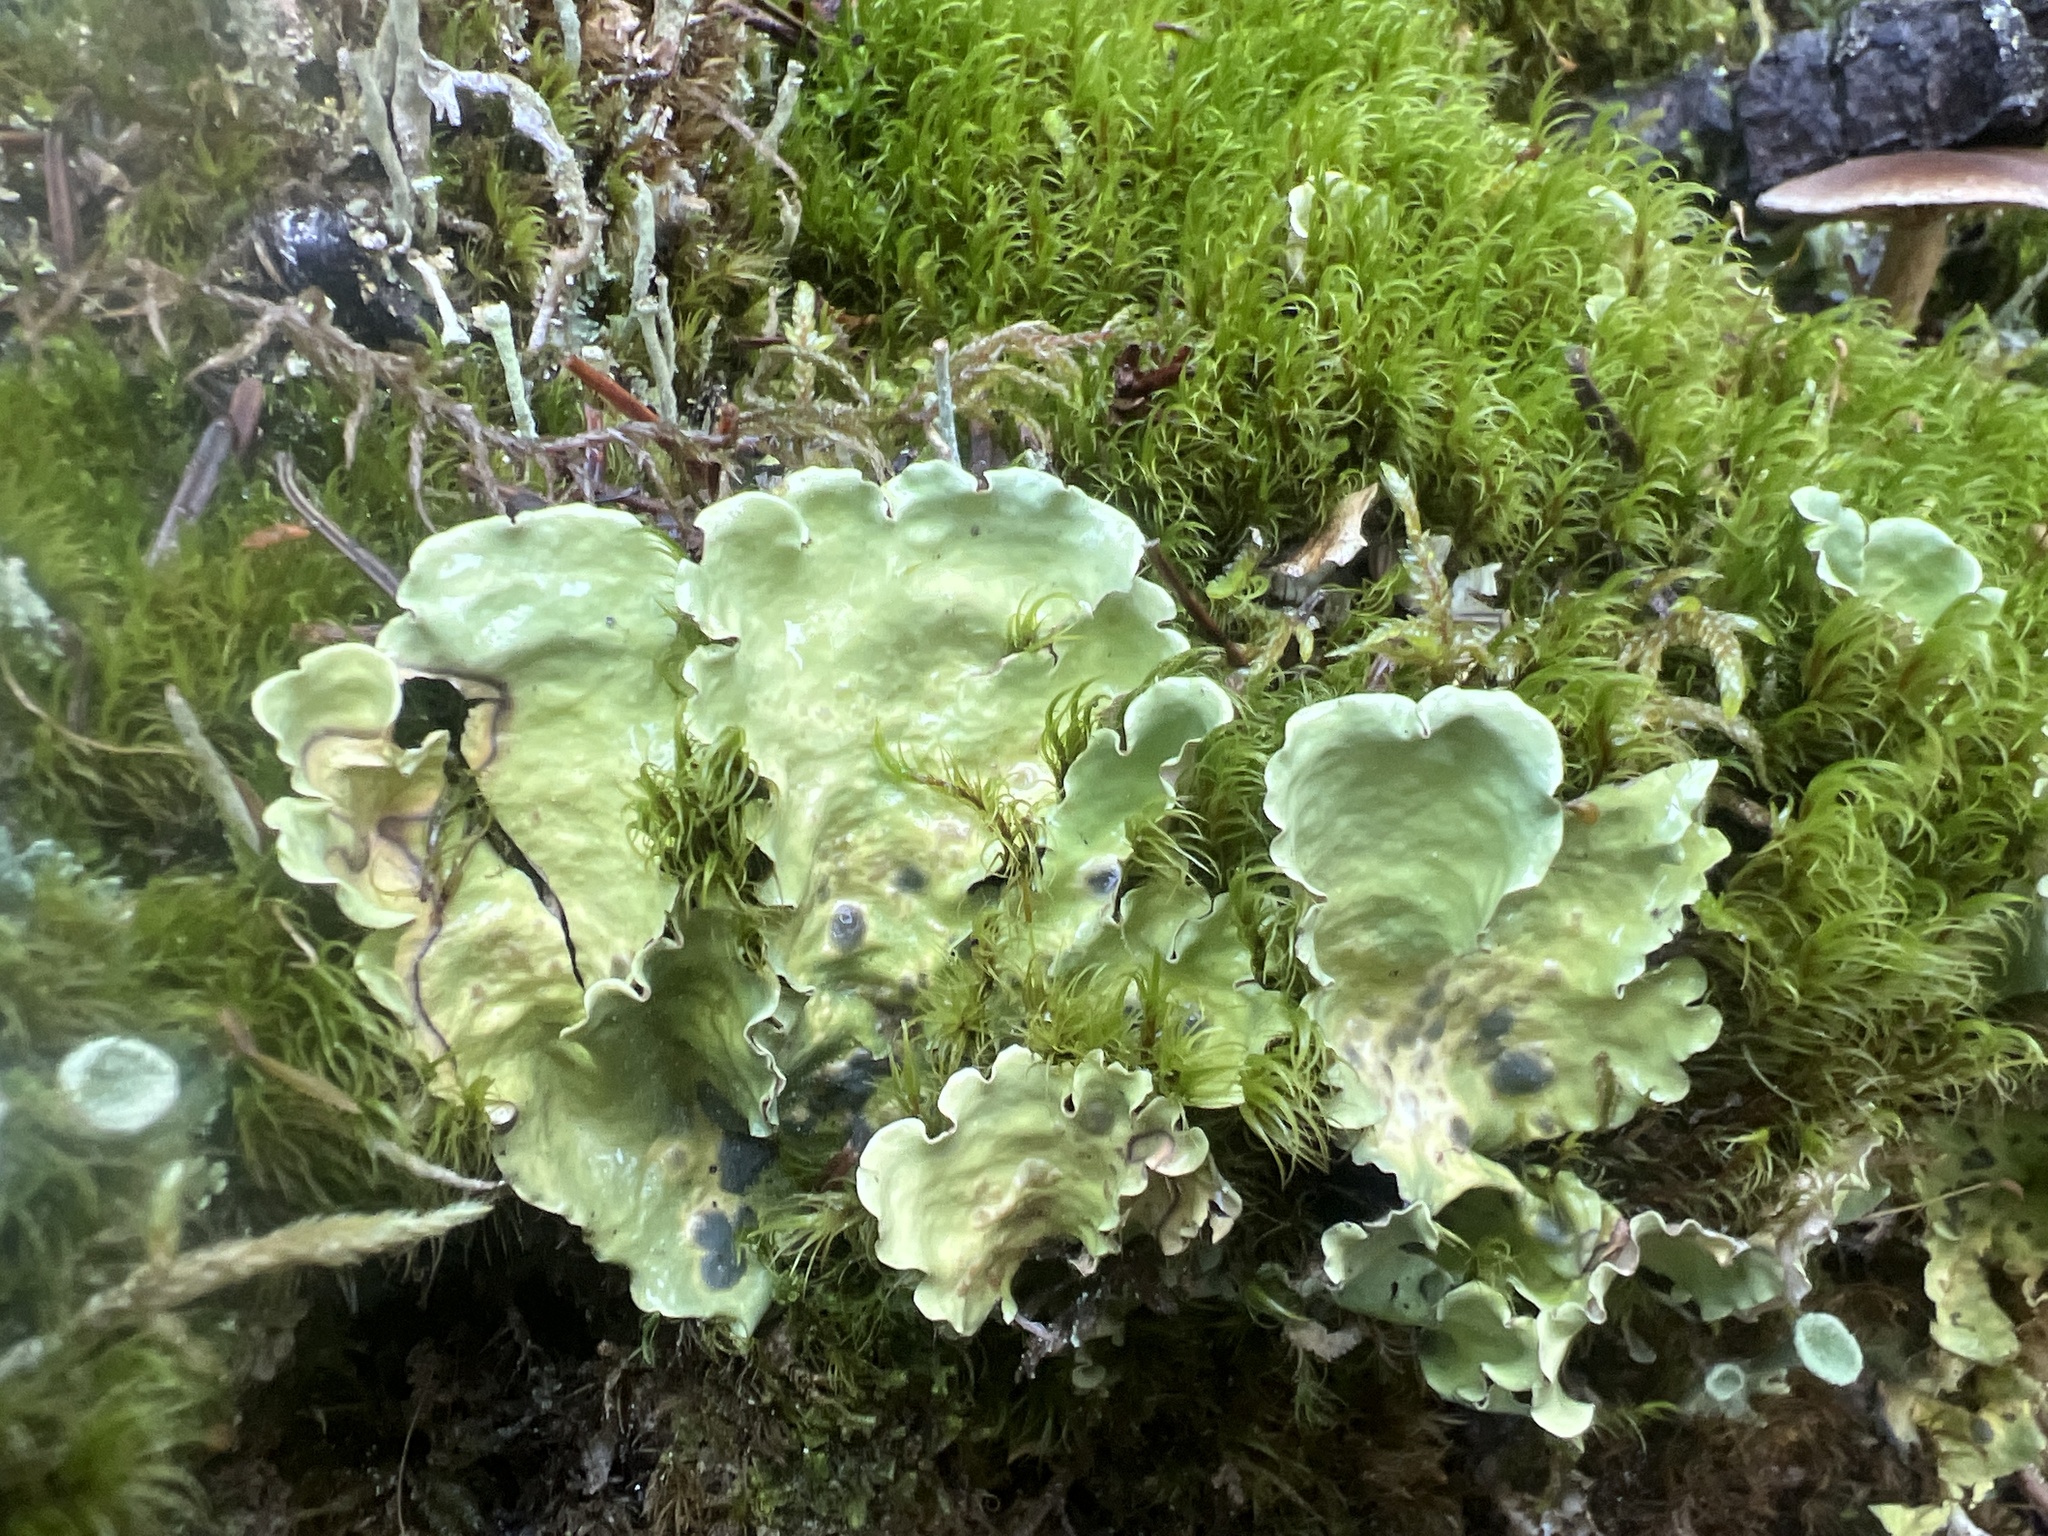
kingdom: Fungi
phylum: Ascomycota
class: Lecanoromycetes
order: Peltigerales
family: Nephromataceae
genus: Nephroma
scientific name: Nephroma arcticum
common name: Arctic kidney-lichen
